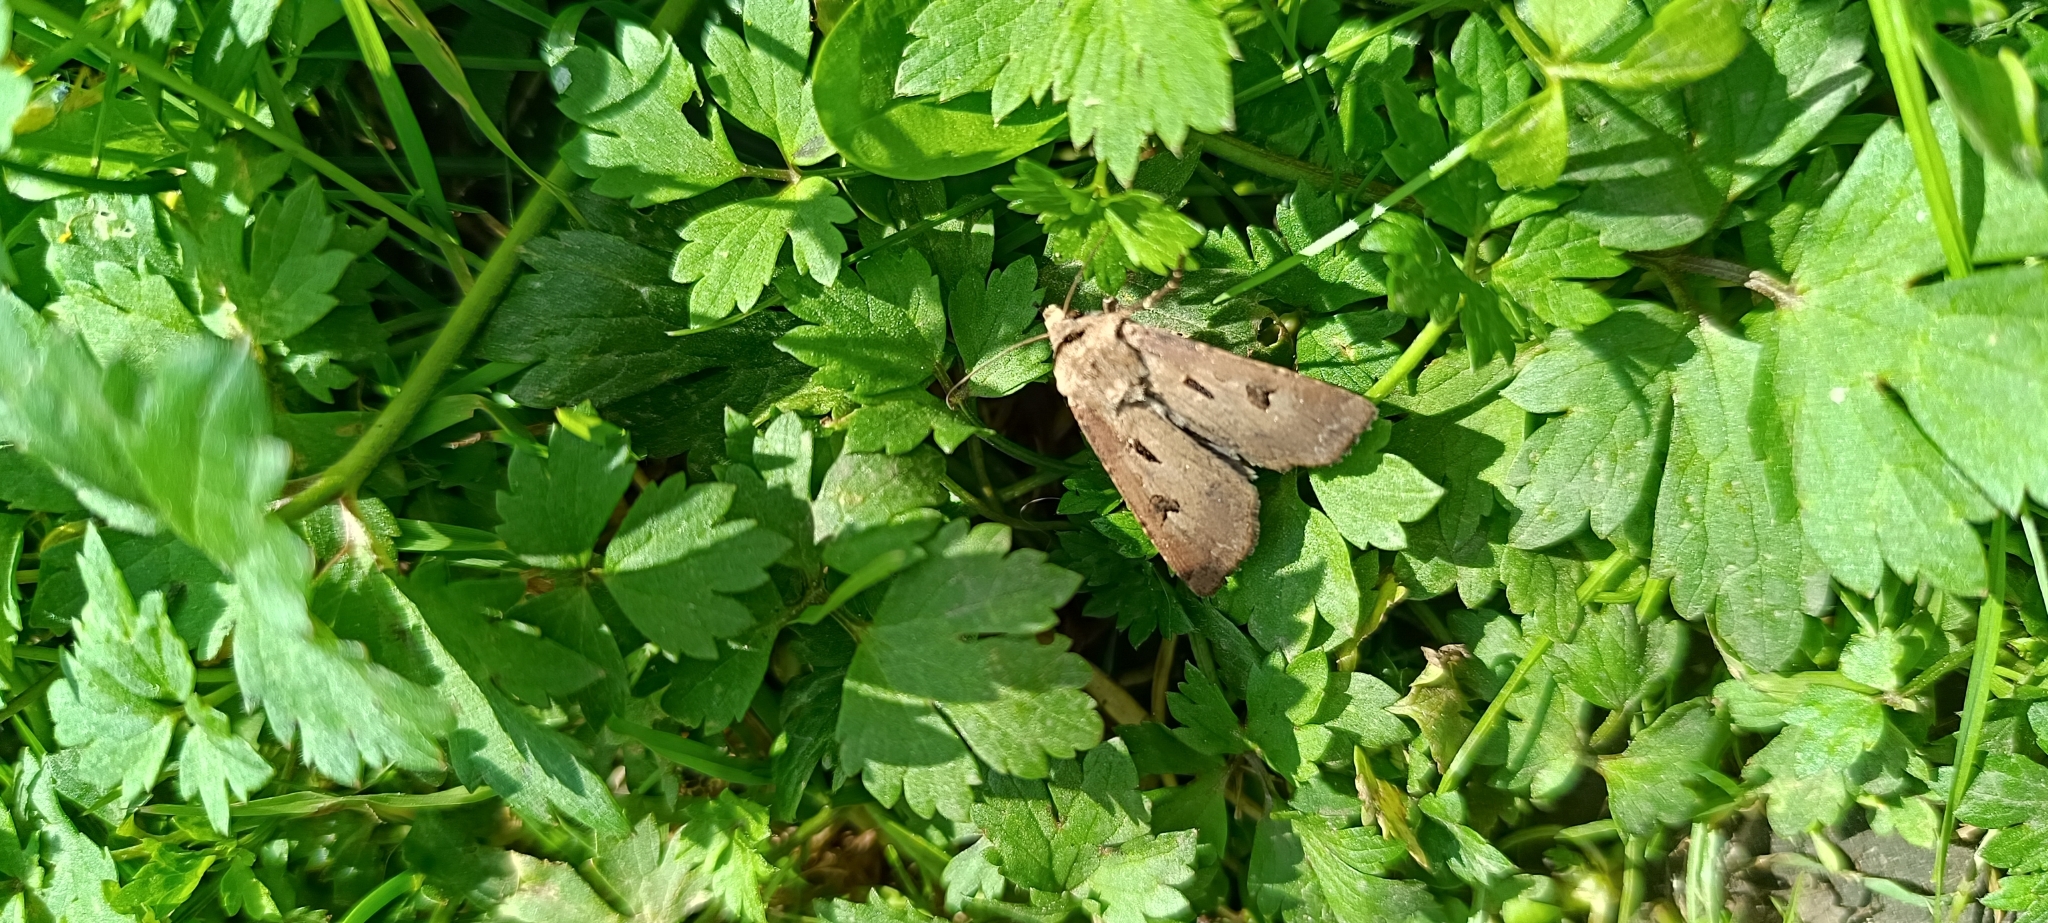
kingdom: Animalia
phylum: Arthropoda
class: Insecta
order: Lepidoptera
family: Noctuidae
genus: Agrotis
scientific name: Agrotis exclamationis
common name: Heart and dart
